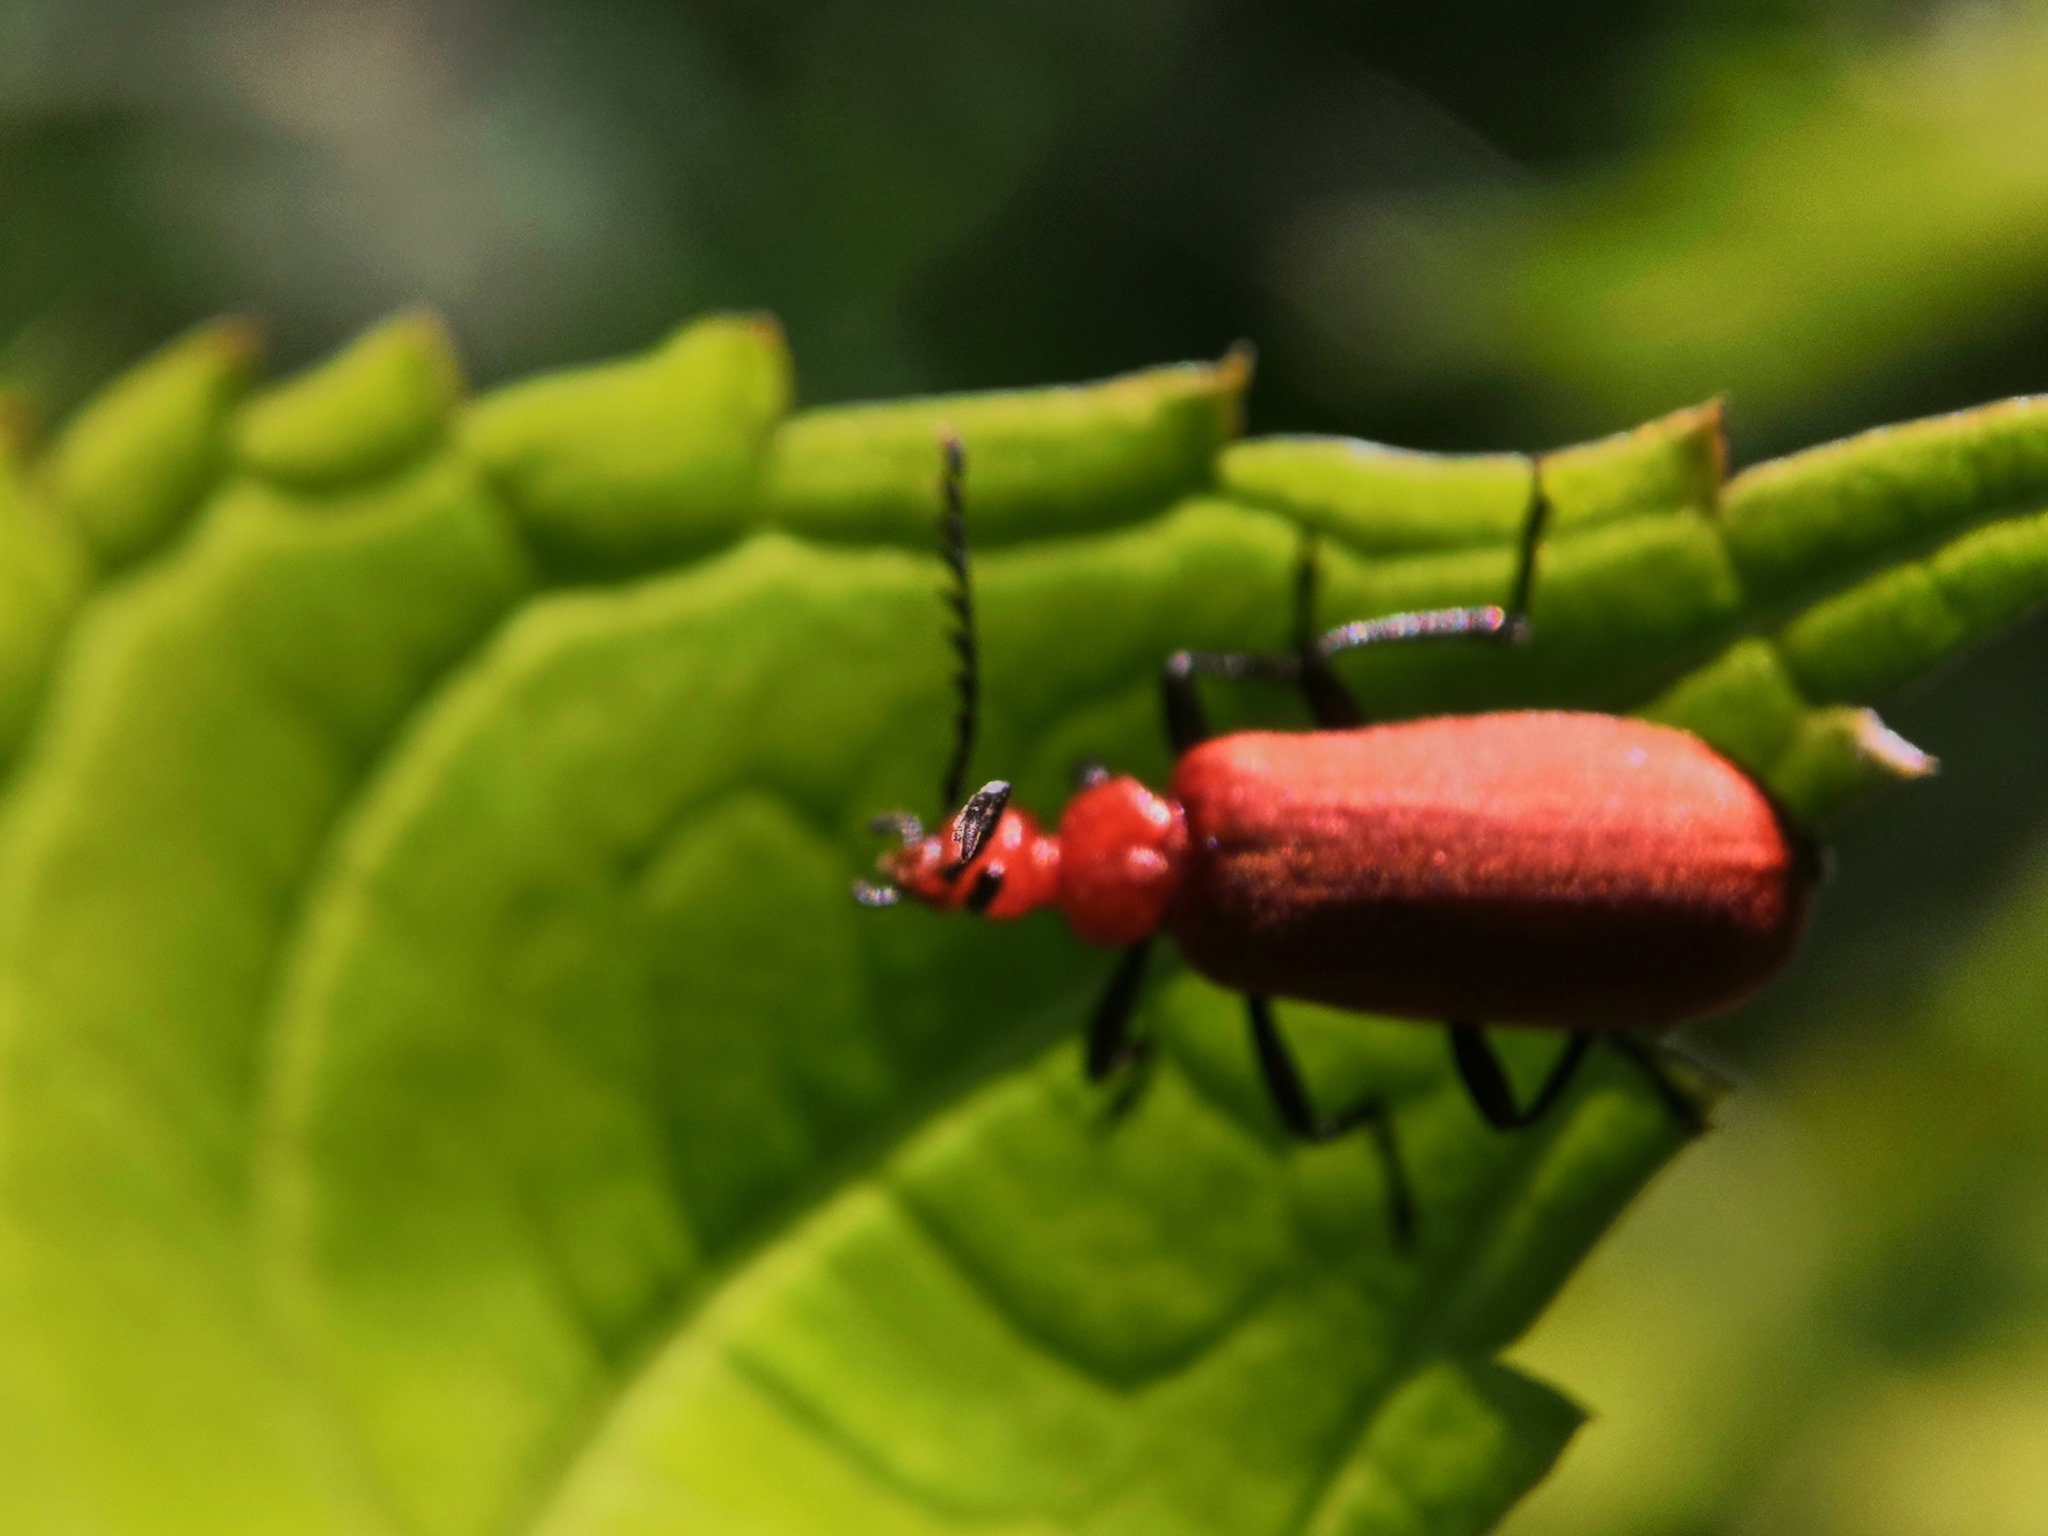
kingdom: Animalia
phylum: Arthropoda
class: Insecta
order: Coleoptera
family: Pyrochroidae
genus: Pyrochroa
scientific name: Pyrochroa serraticornis
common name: Red-headed cardinal beetle
